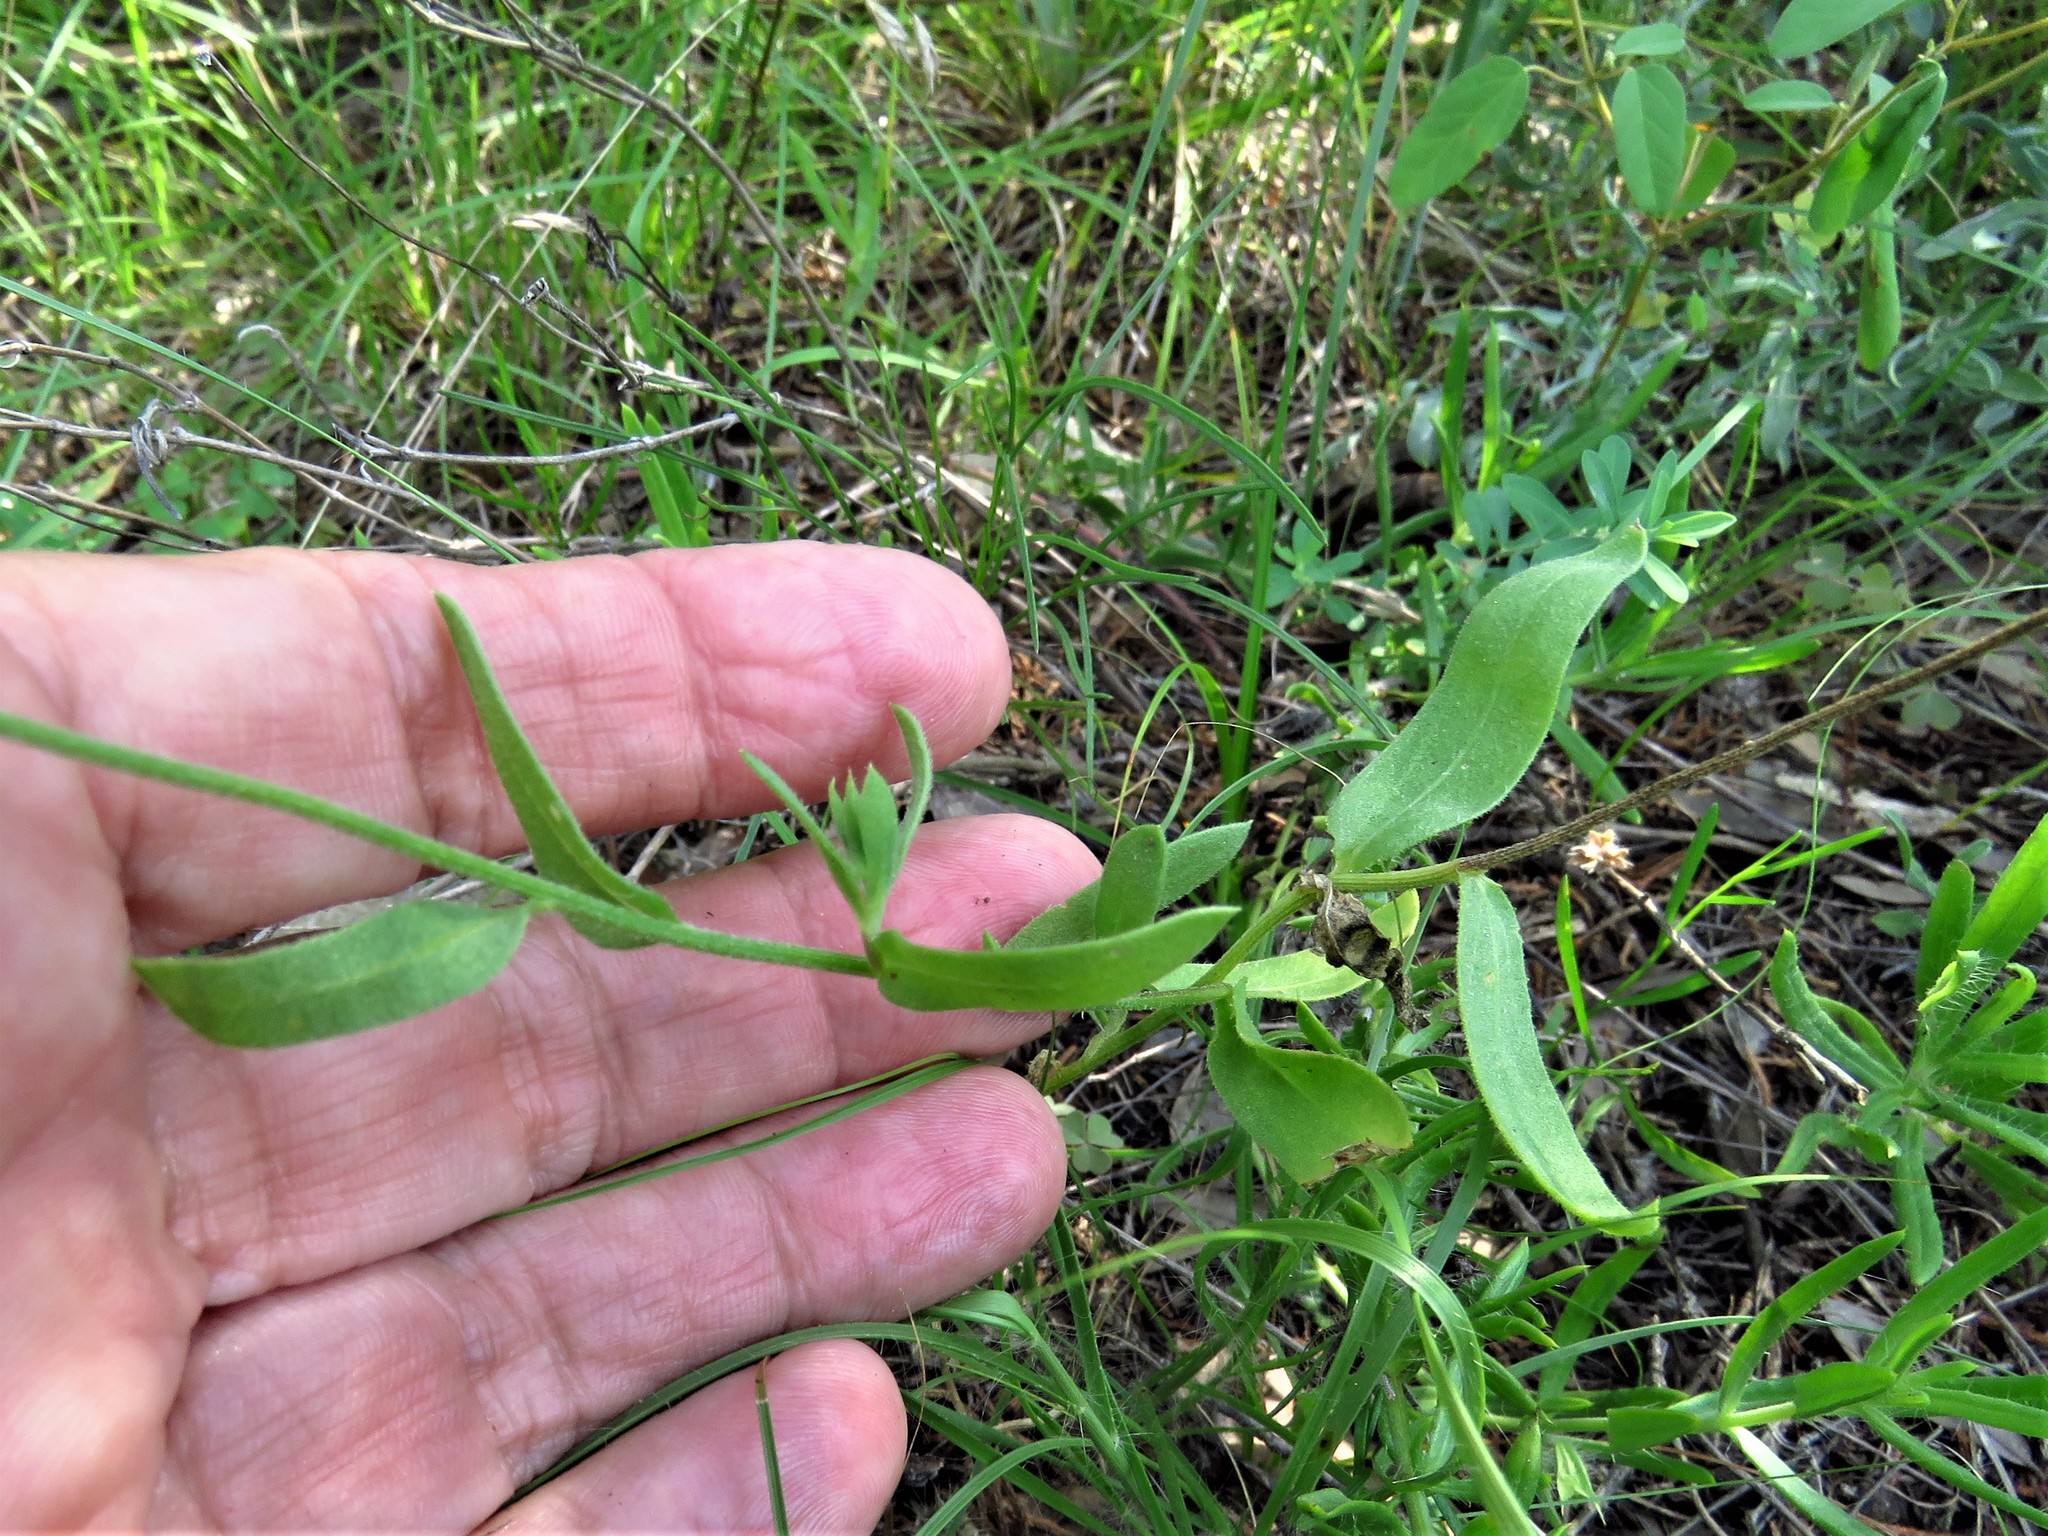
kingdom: Plantae
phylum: Tracheophyta
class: Magnoliopsida
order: Asterales
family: Asteraceae
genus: Gaillardia
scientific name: Gaillardia pulchella
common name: Firewheel
